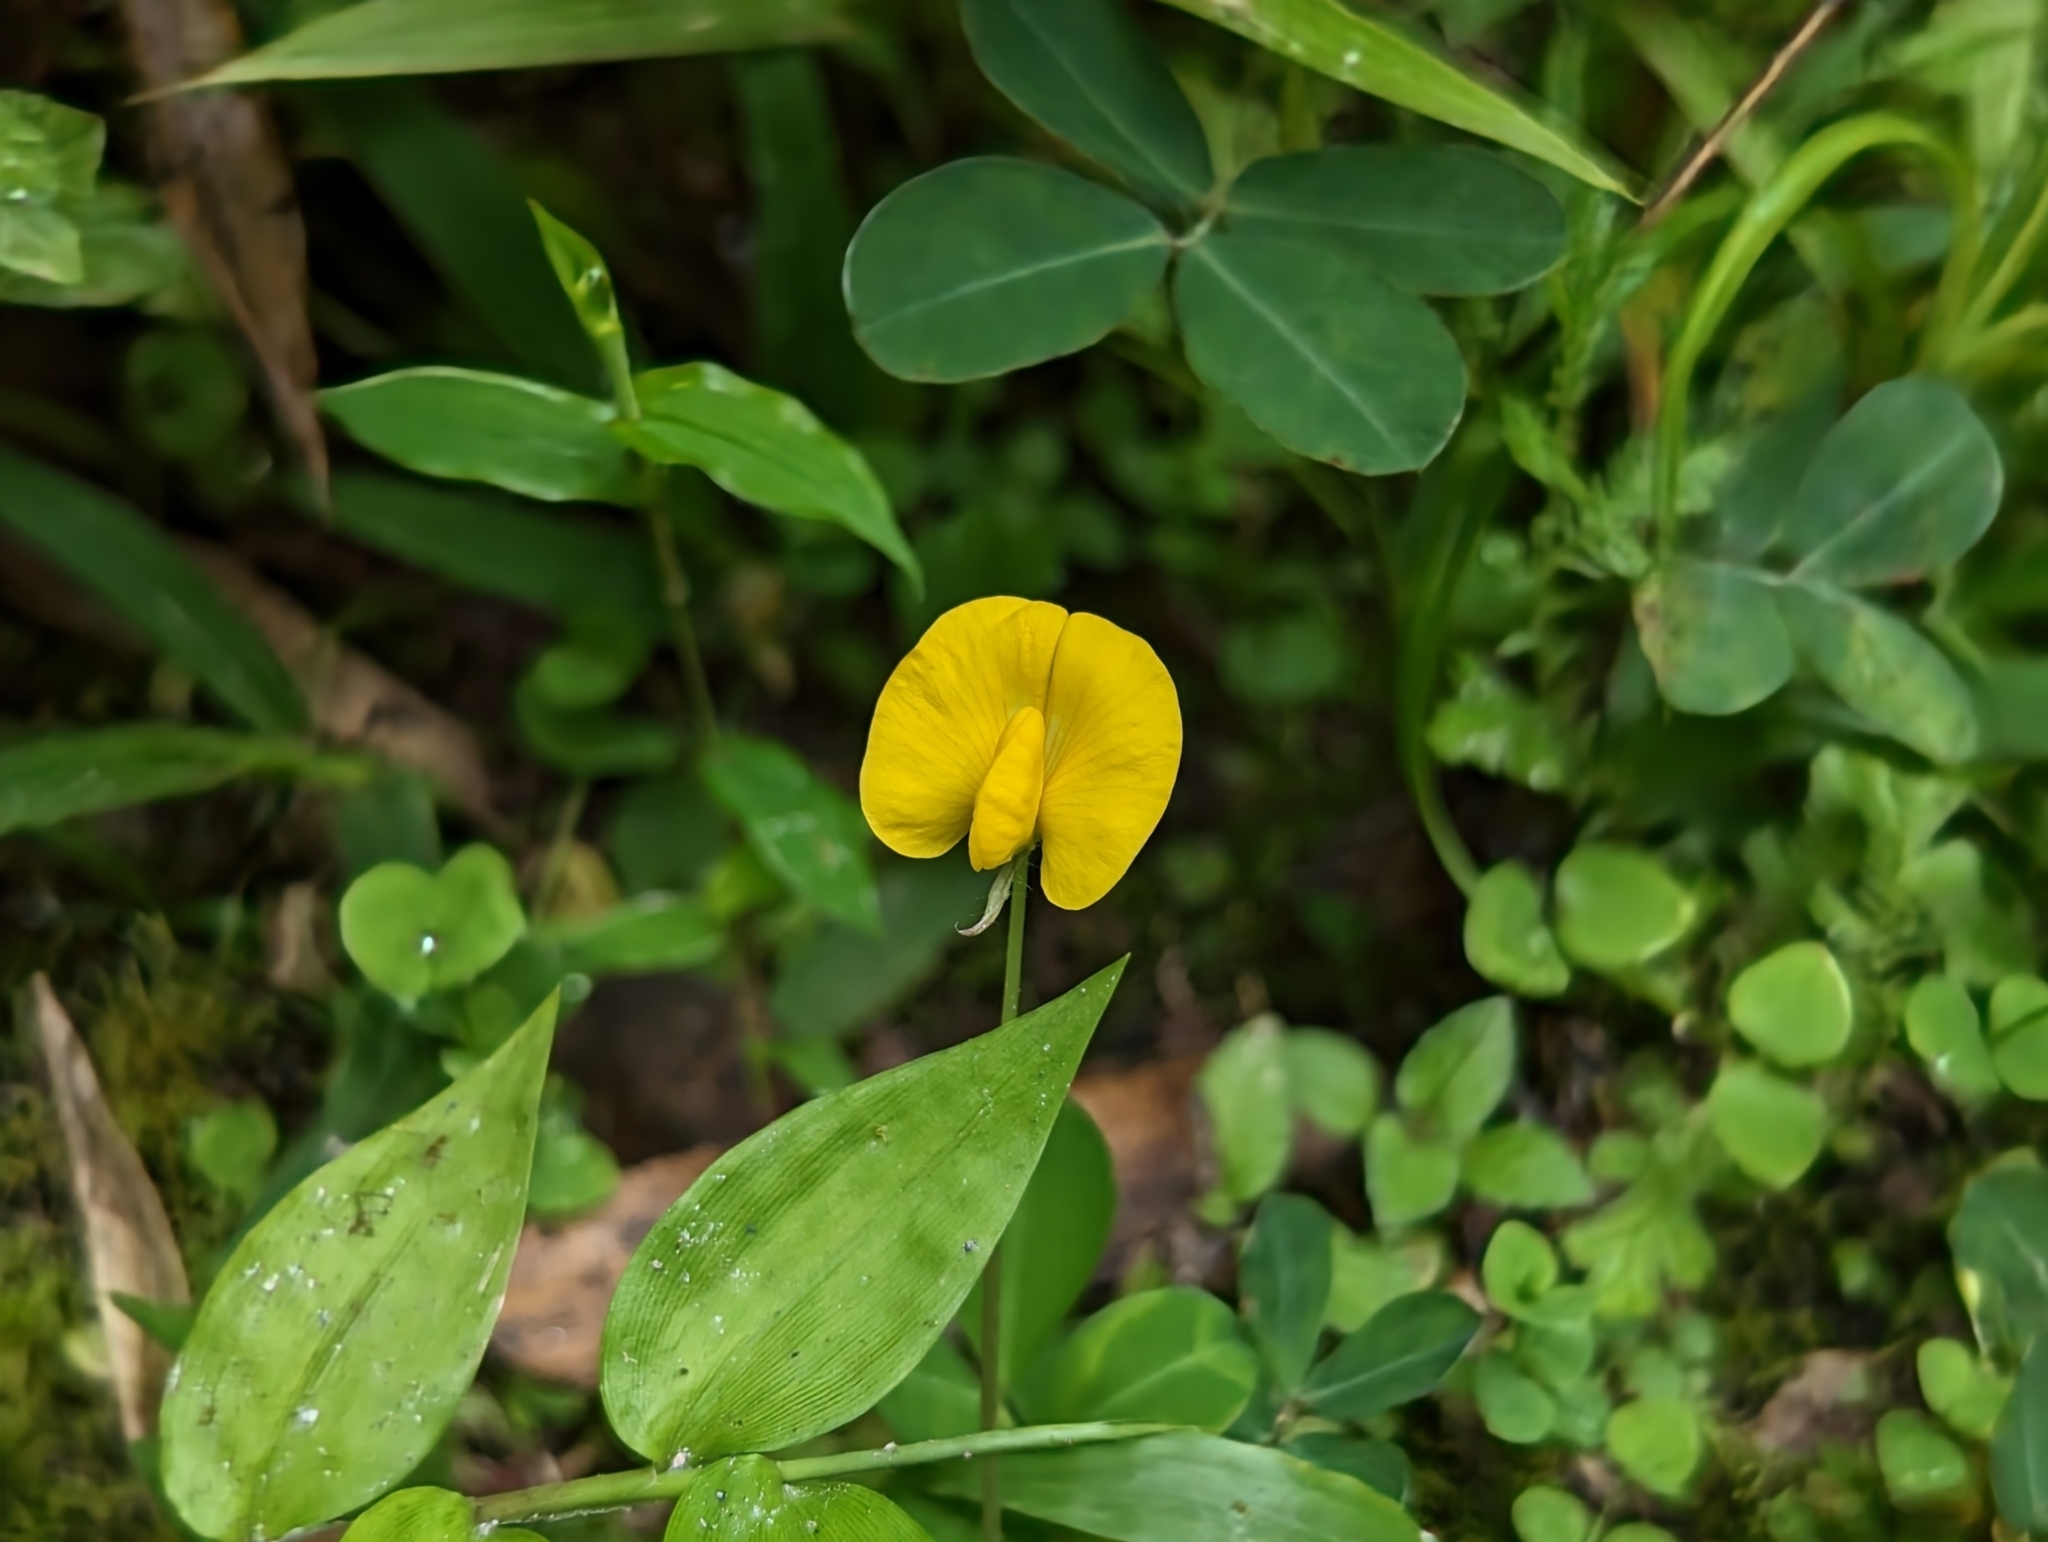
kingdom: Plantae
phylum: Tracheophyta
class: Magnoliopsida
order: Fabales
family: Fabaceae
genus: Arachis
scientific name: Arachis pintoi
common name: Pinto peanut
